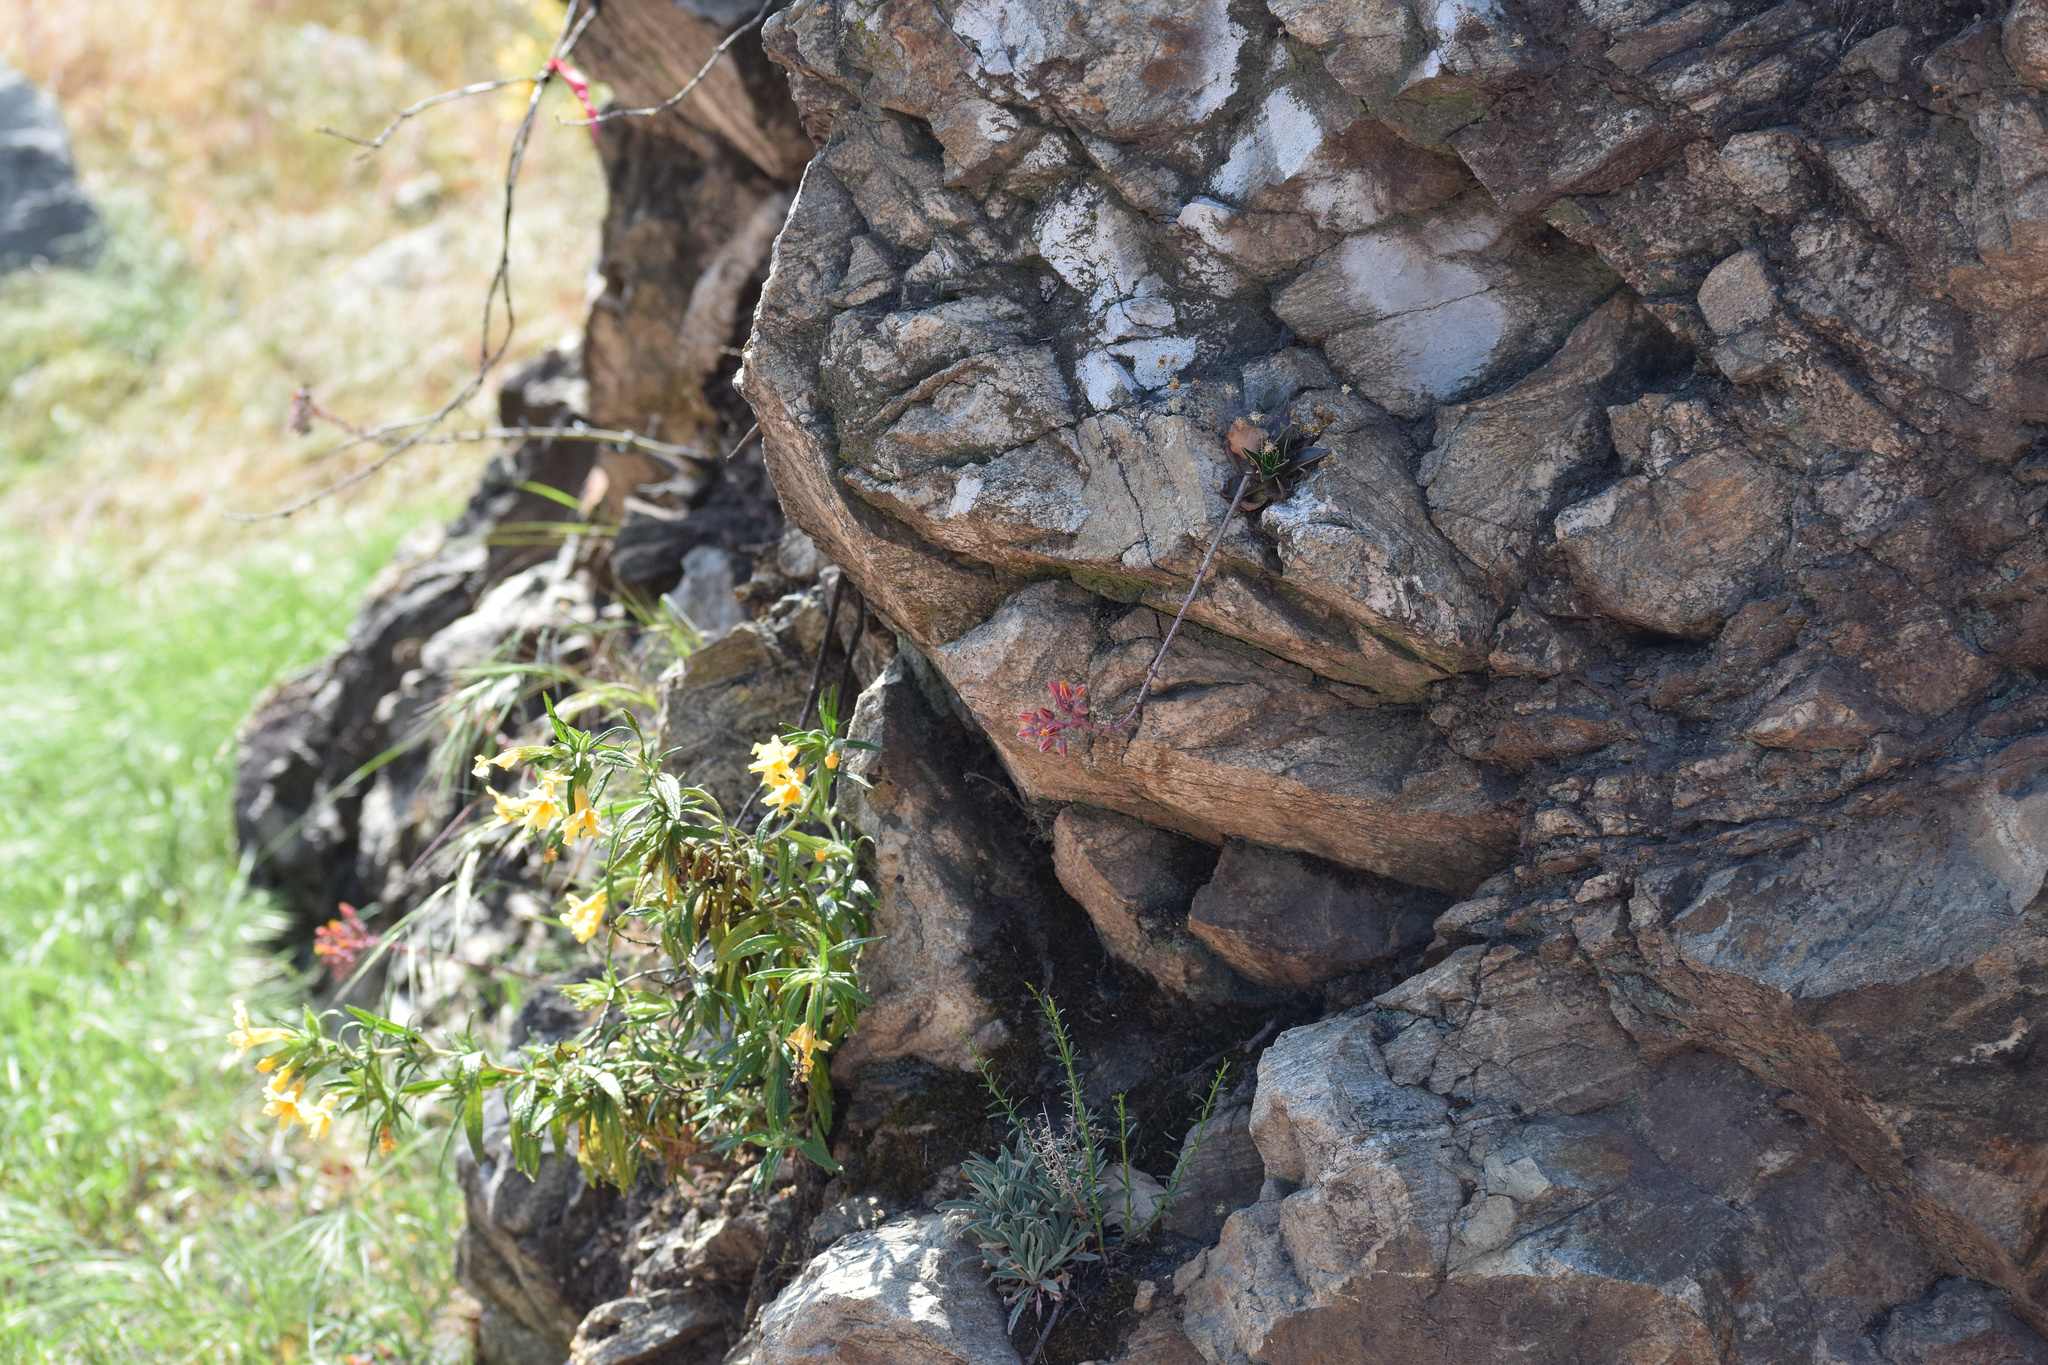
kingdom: Plantae
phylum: Tracheophyta
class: Magnoliopsida
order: Saxifragales
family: Crassulaceae
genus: Dudleya
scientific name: Dudleya lanceolata
